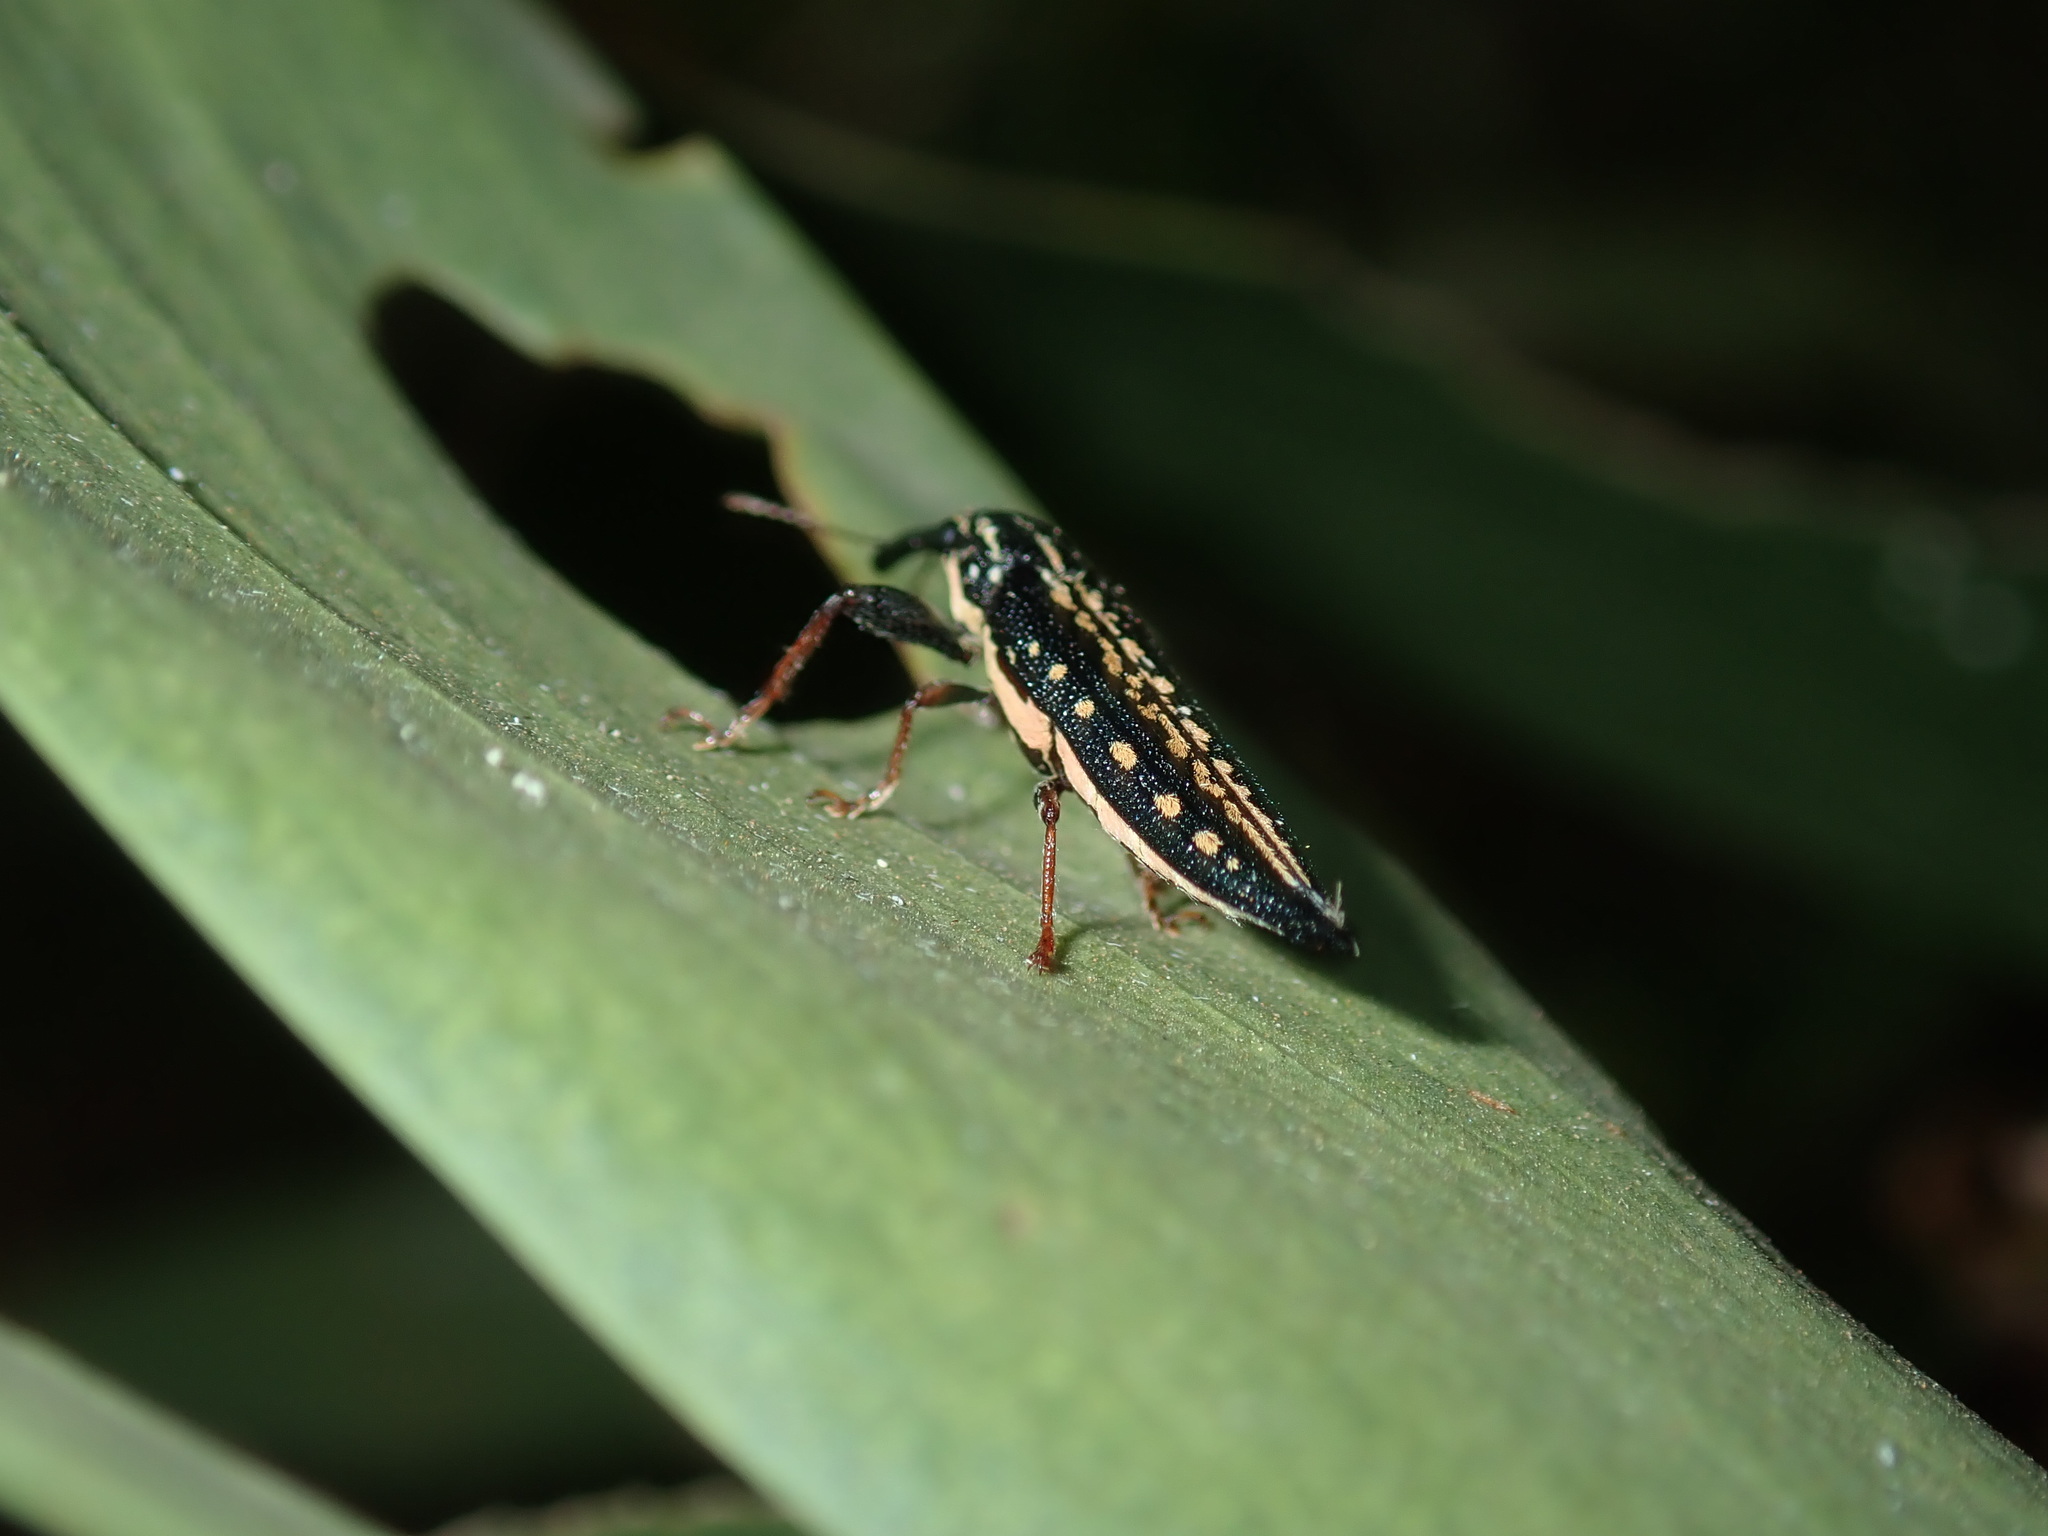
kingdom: Animalia
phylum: Arthropoda
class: Insecta
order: Coleoptera
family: Belidae
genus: Rhinotia
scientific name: Rhinotia lineata
